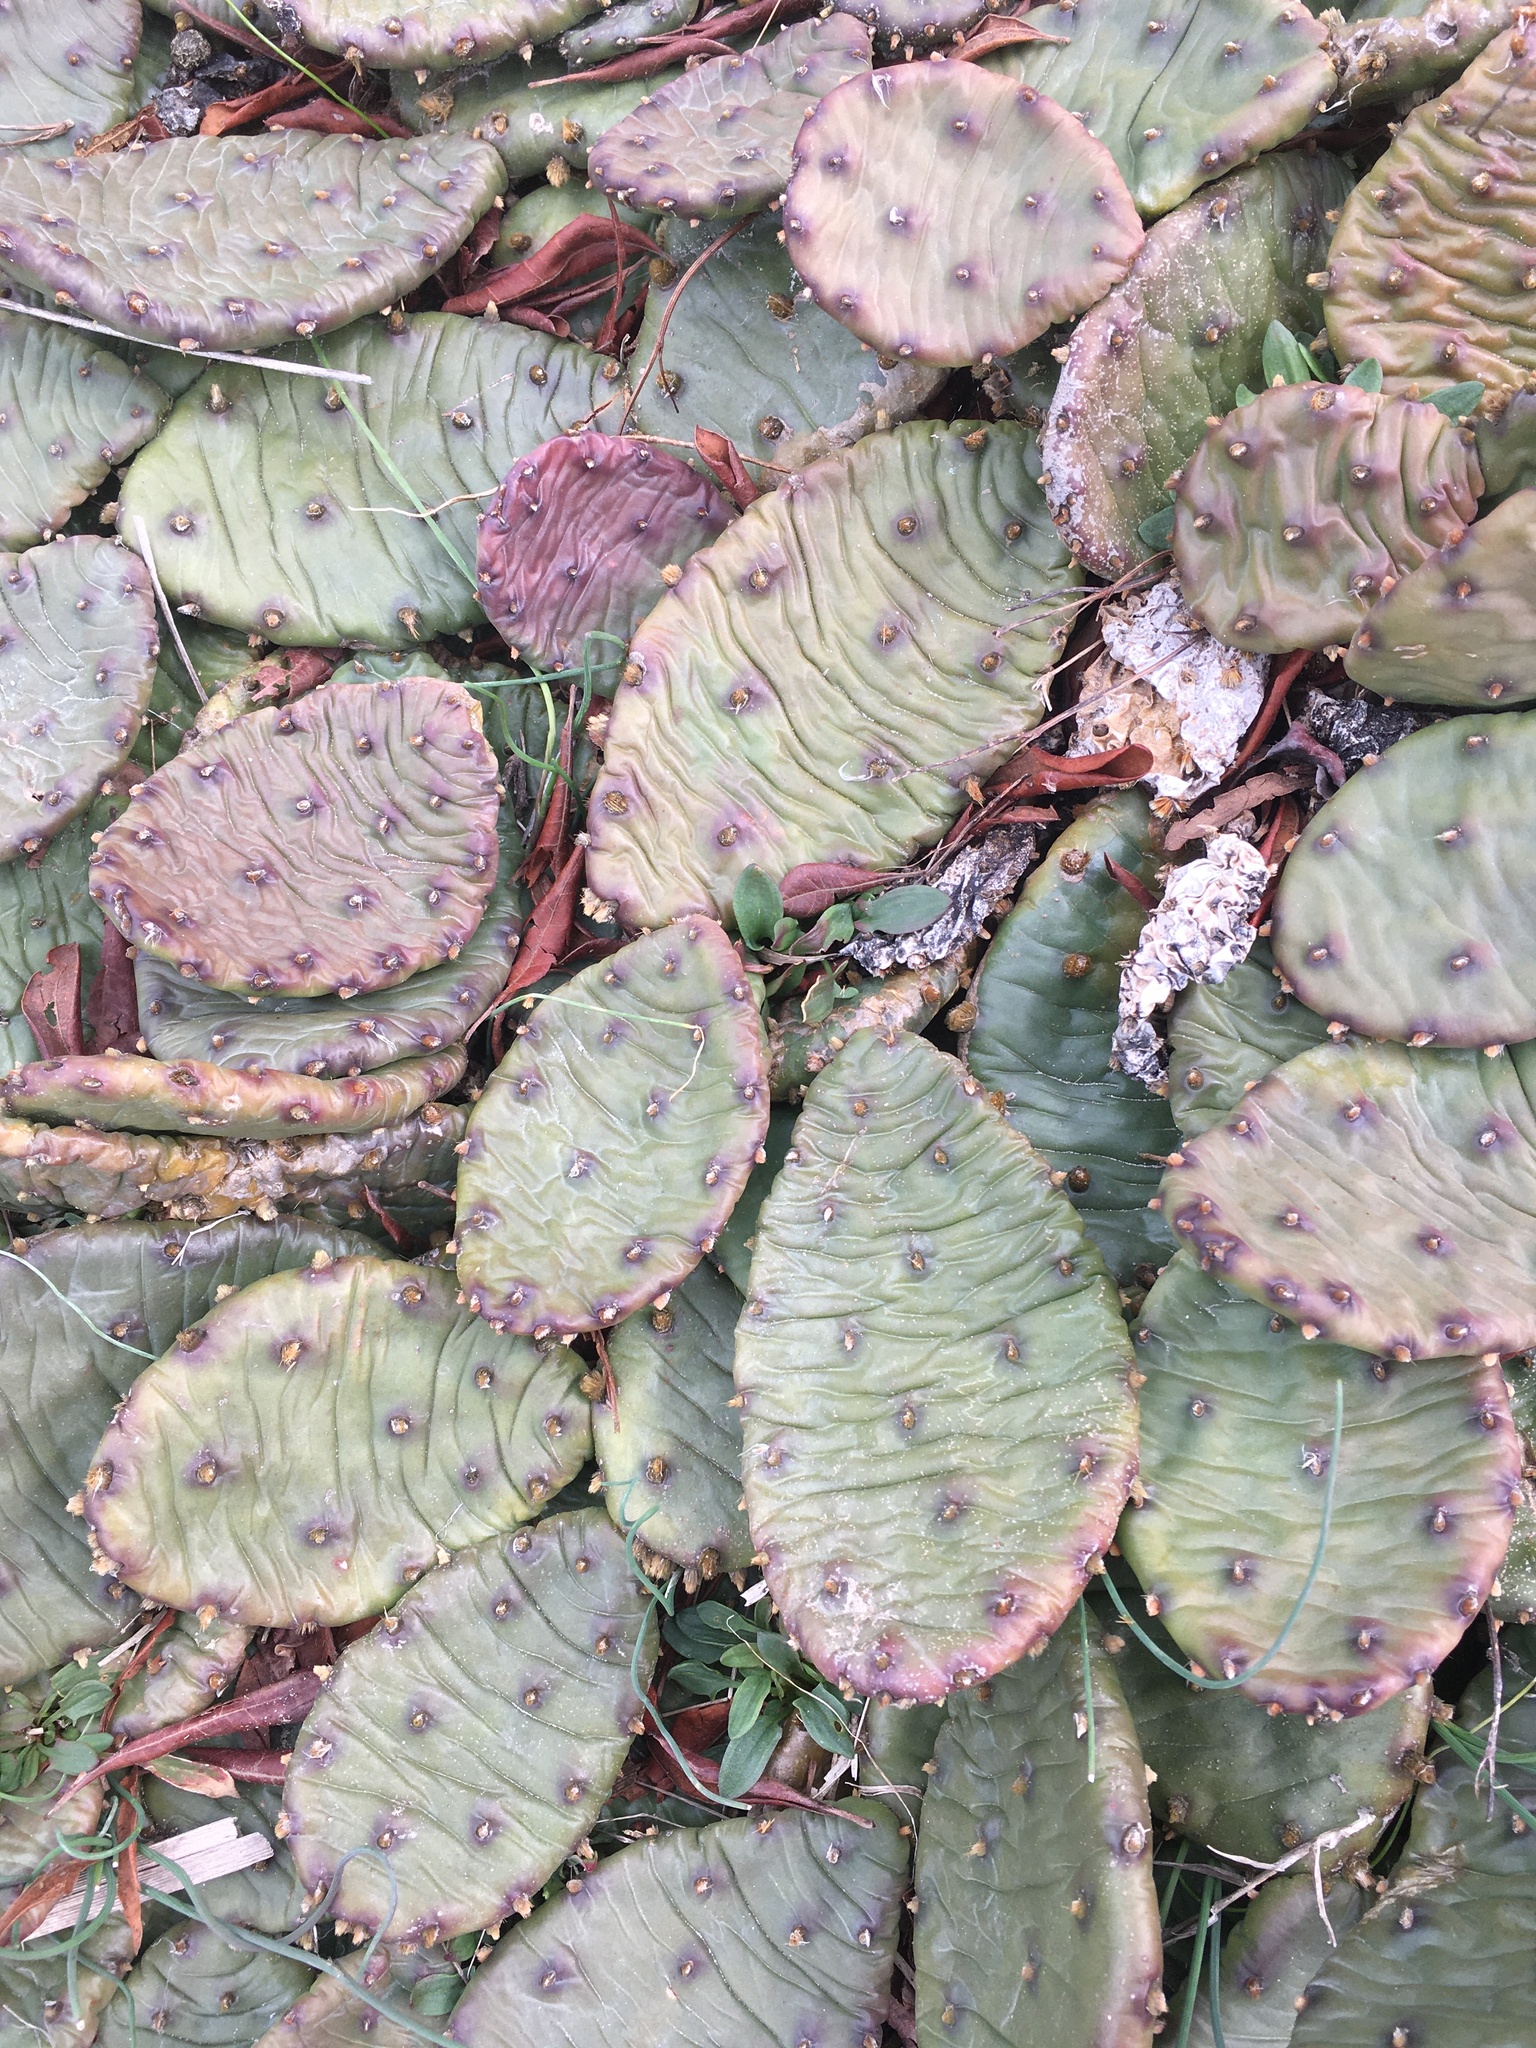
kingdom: Plantae
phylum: Tracheophyta
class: Magnoliopsida
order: Caryophyllales
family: Cactaceae
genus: Opuntia
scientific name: Opuntia humifusa
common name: Eastern prickly-pear
